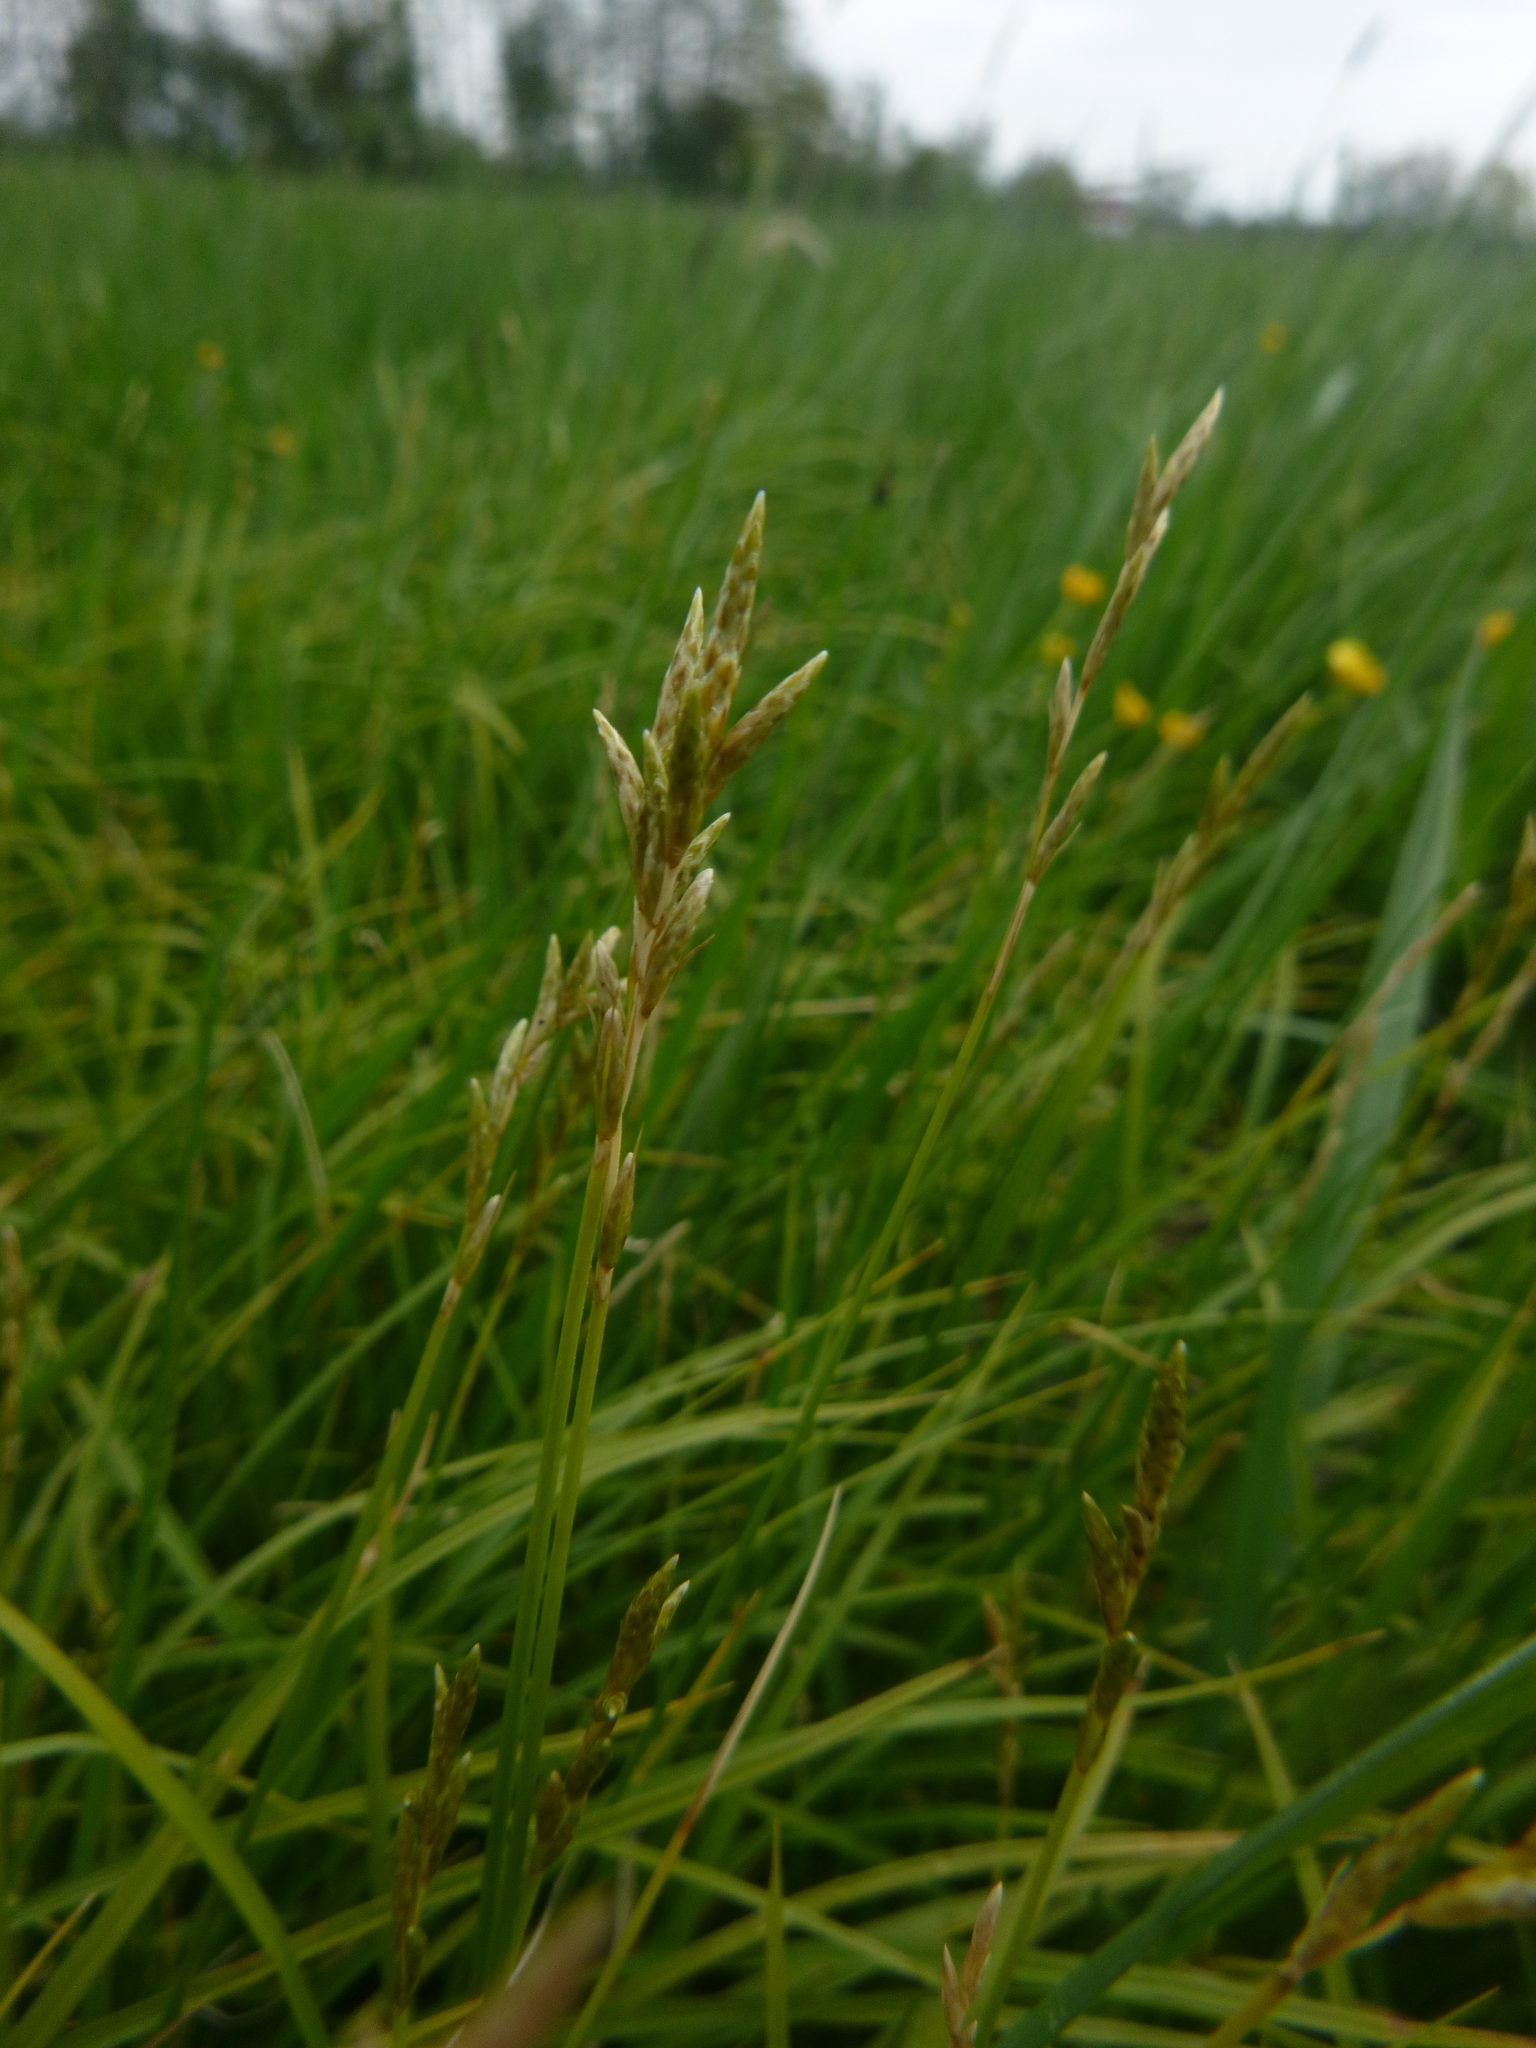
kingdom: Plantae
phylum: Tracheophyta
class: Liliopsida
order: Poales
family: Cyperaceae
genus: Carex
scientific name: Carex brizoides
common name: Quaking-grass sedge
